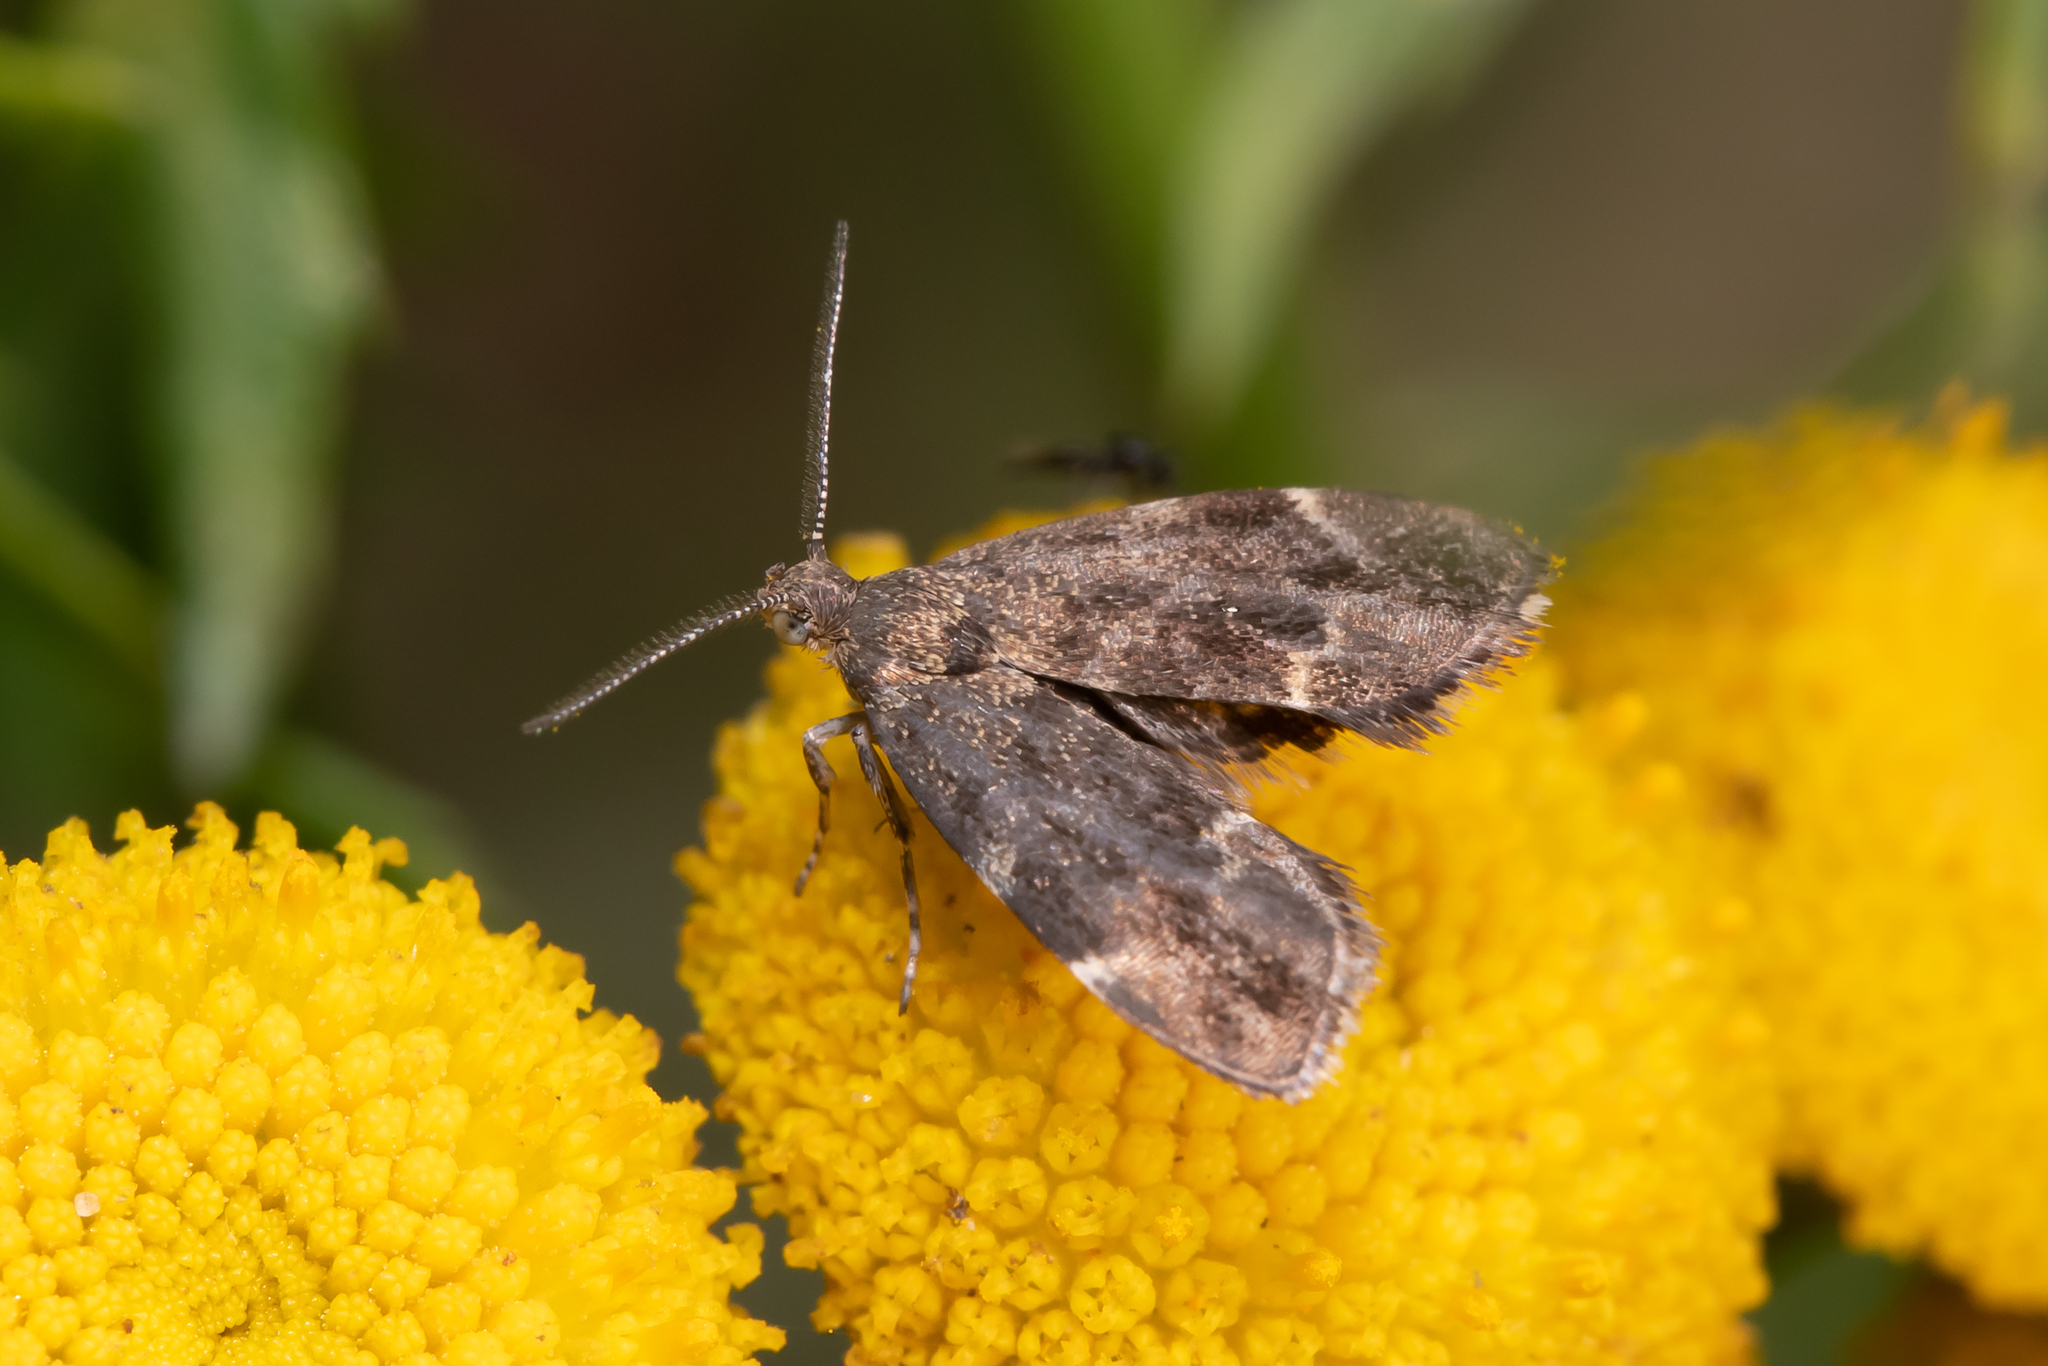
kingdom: Animalia
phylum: Arthropoda
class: Insecta
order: Lepidoptera
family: Choreutidae
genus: Anthophila
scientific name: Anthophila fabriciana
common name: Nettle-tap
